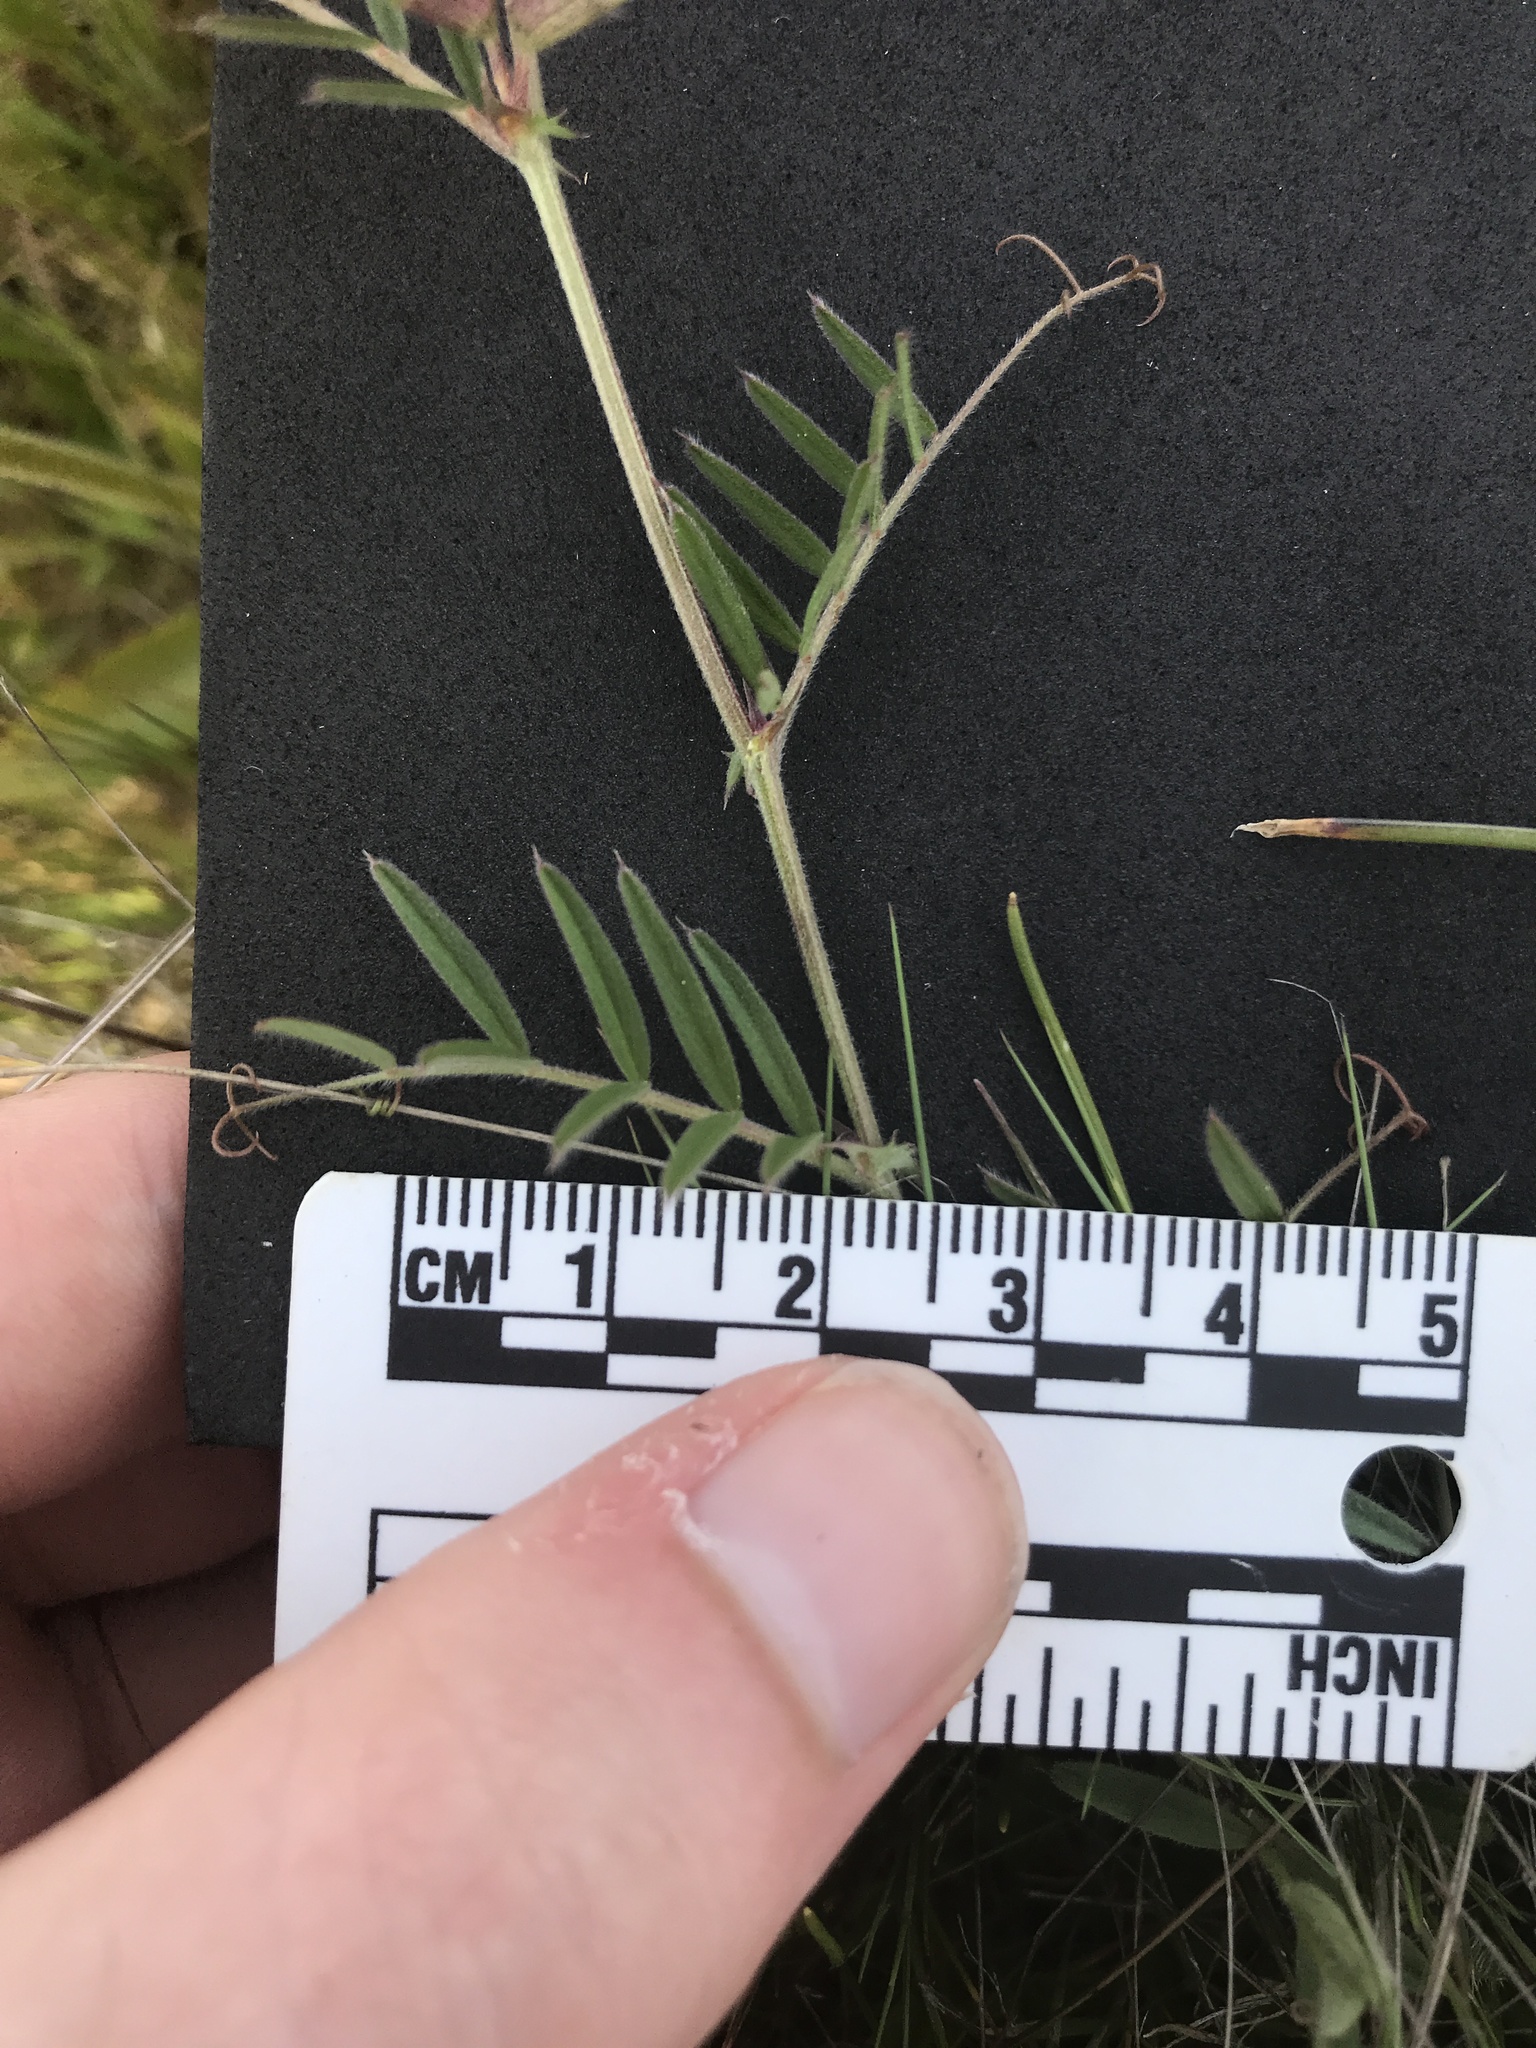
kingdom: Plantae
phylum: Tracheophyta
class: Magnoliopsida
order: Fabales
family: Fabaceae
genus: Vicia
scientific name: Vicia sativa
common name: Garden vetch
